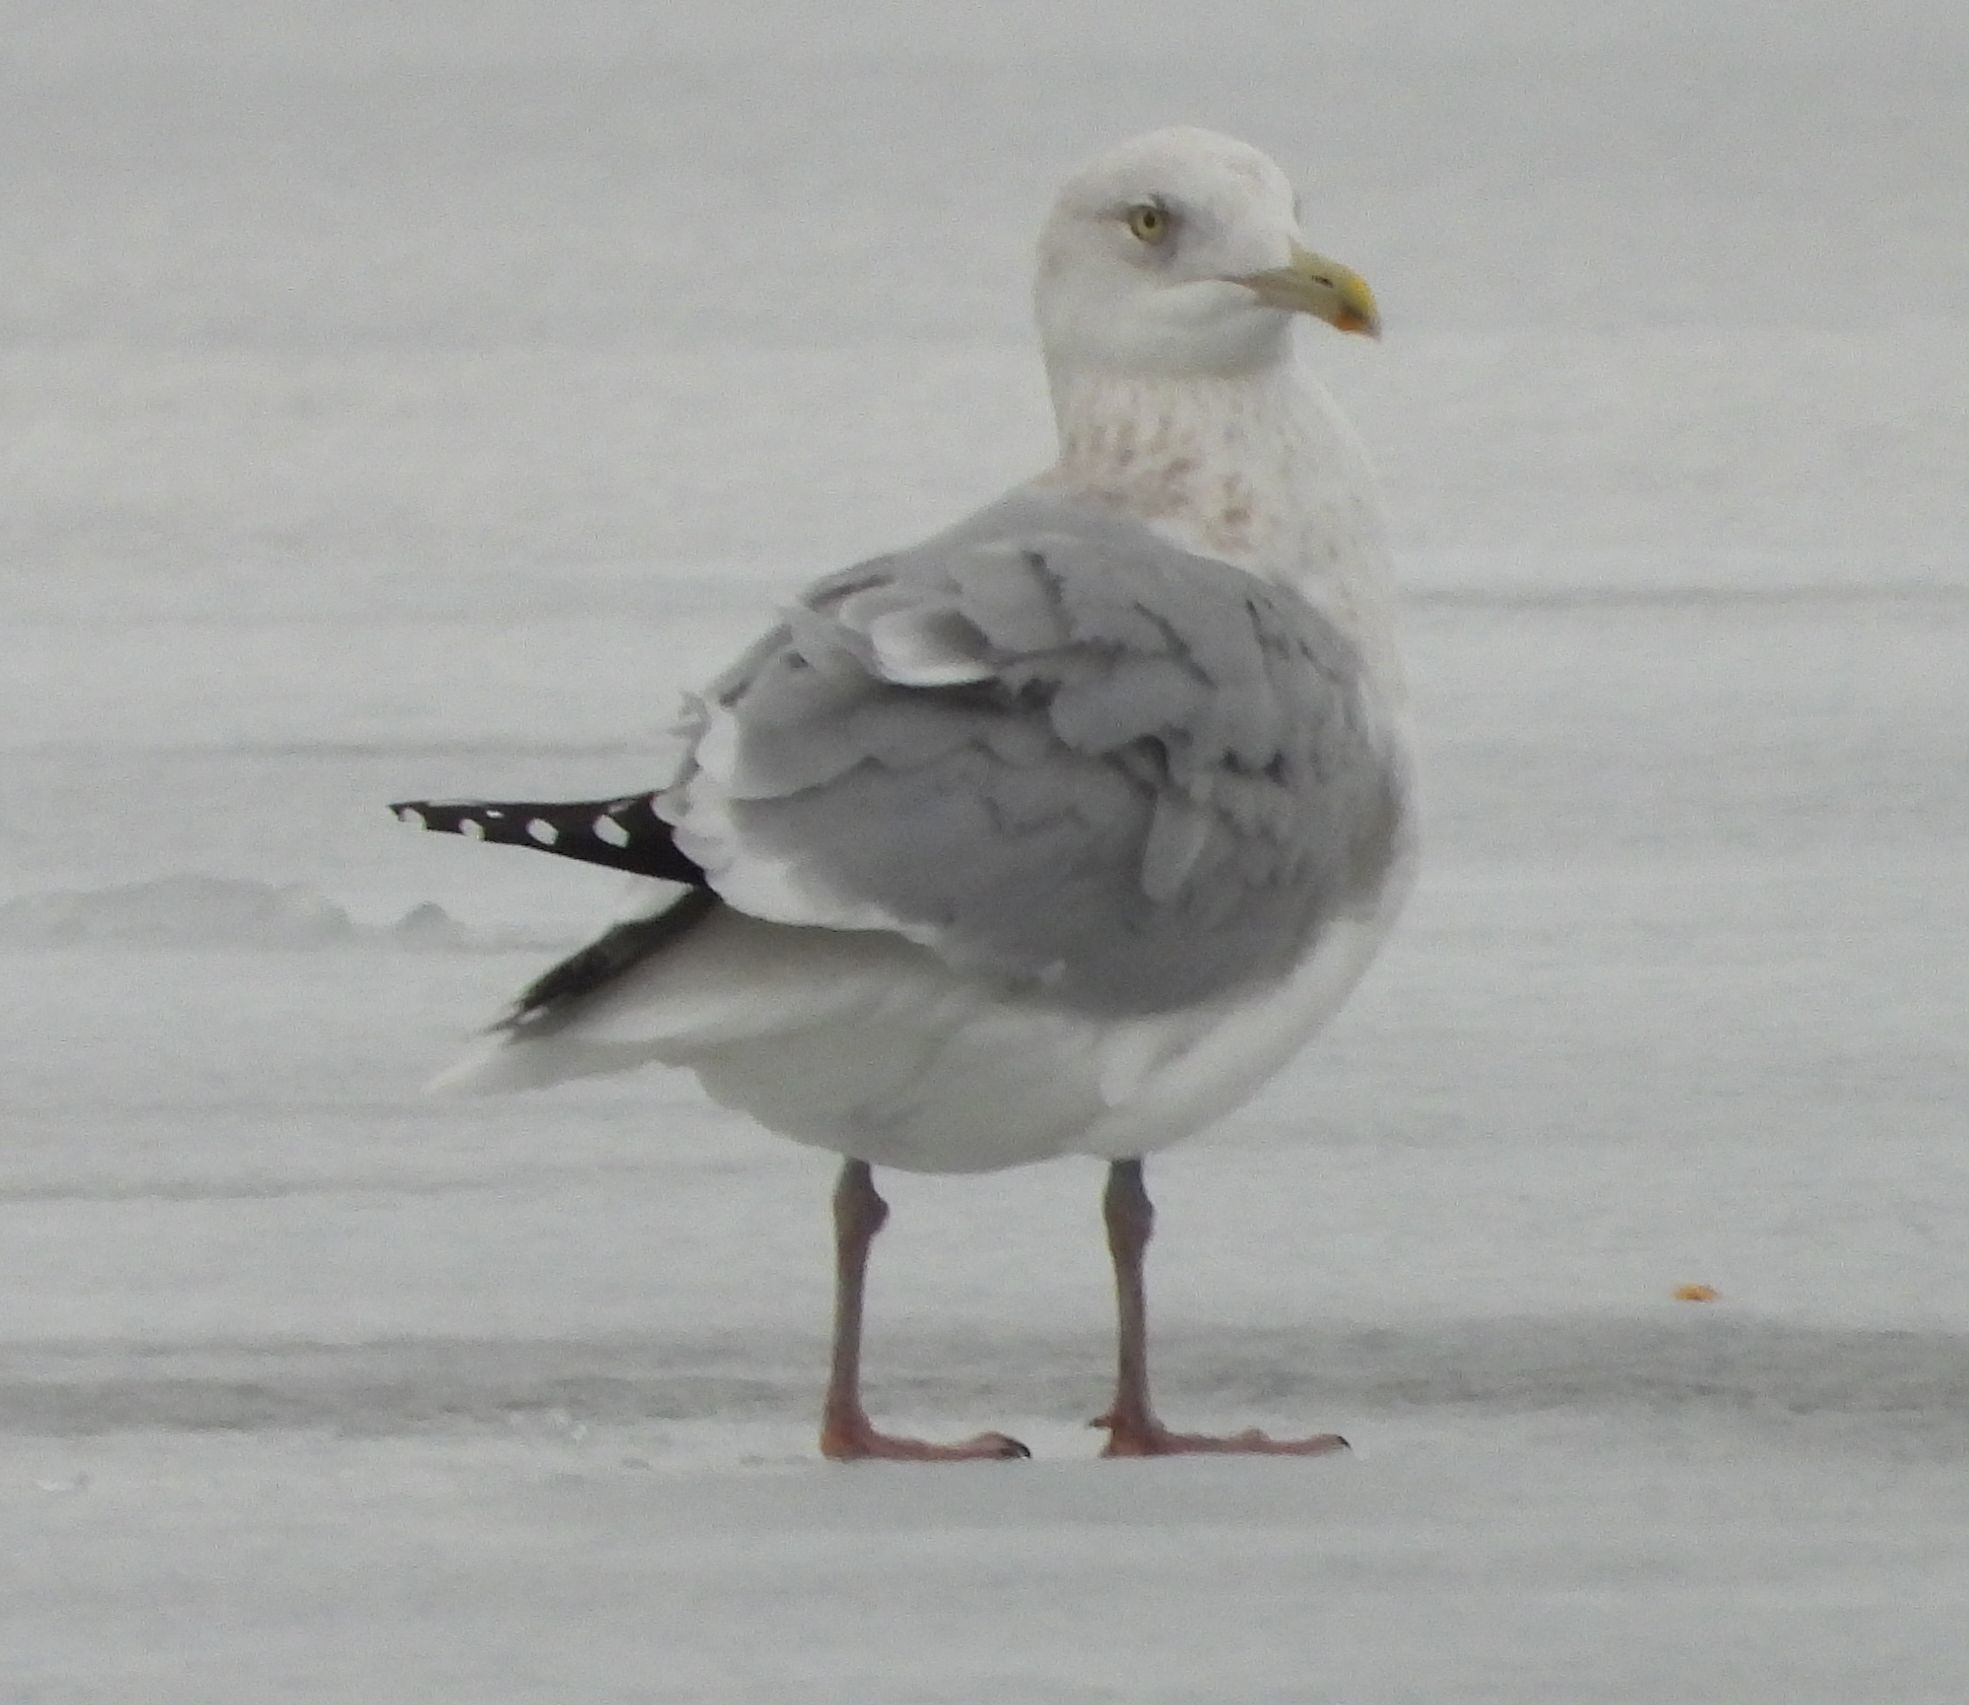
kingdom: Animalia
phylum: Chordata
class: Aves
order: Charadriiformes
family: Laridae
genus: Larus
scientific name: Larus argentatus
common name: Herring gull
